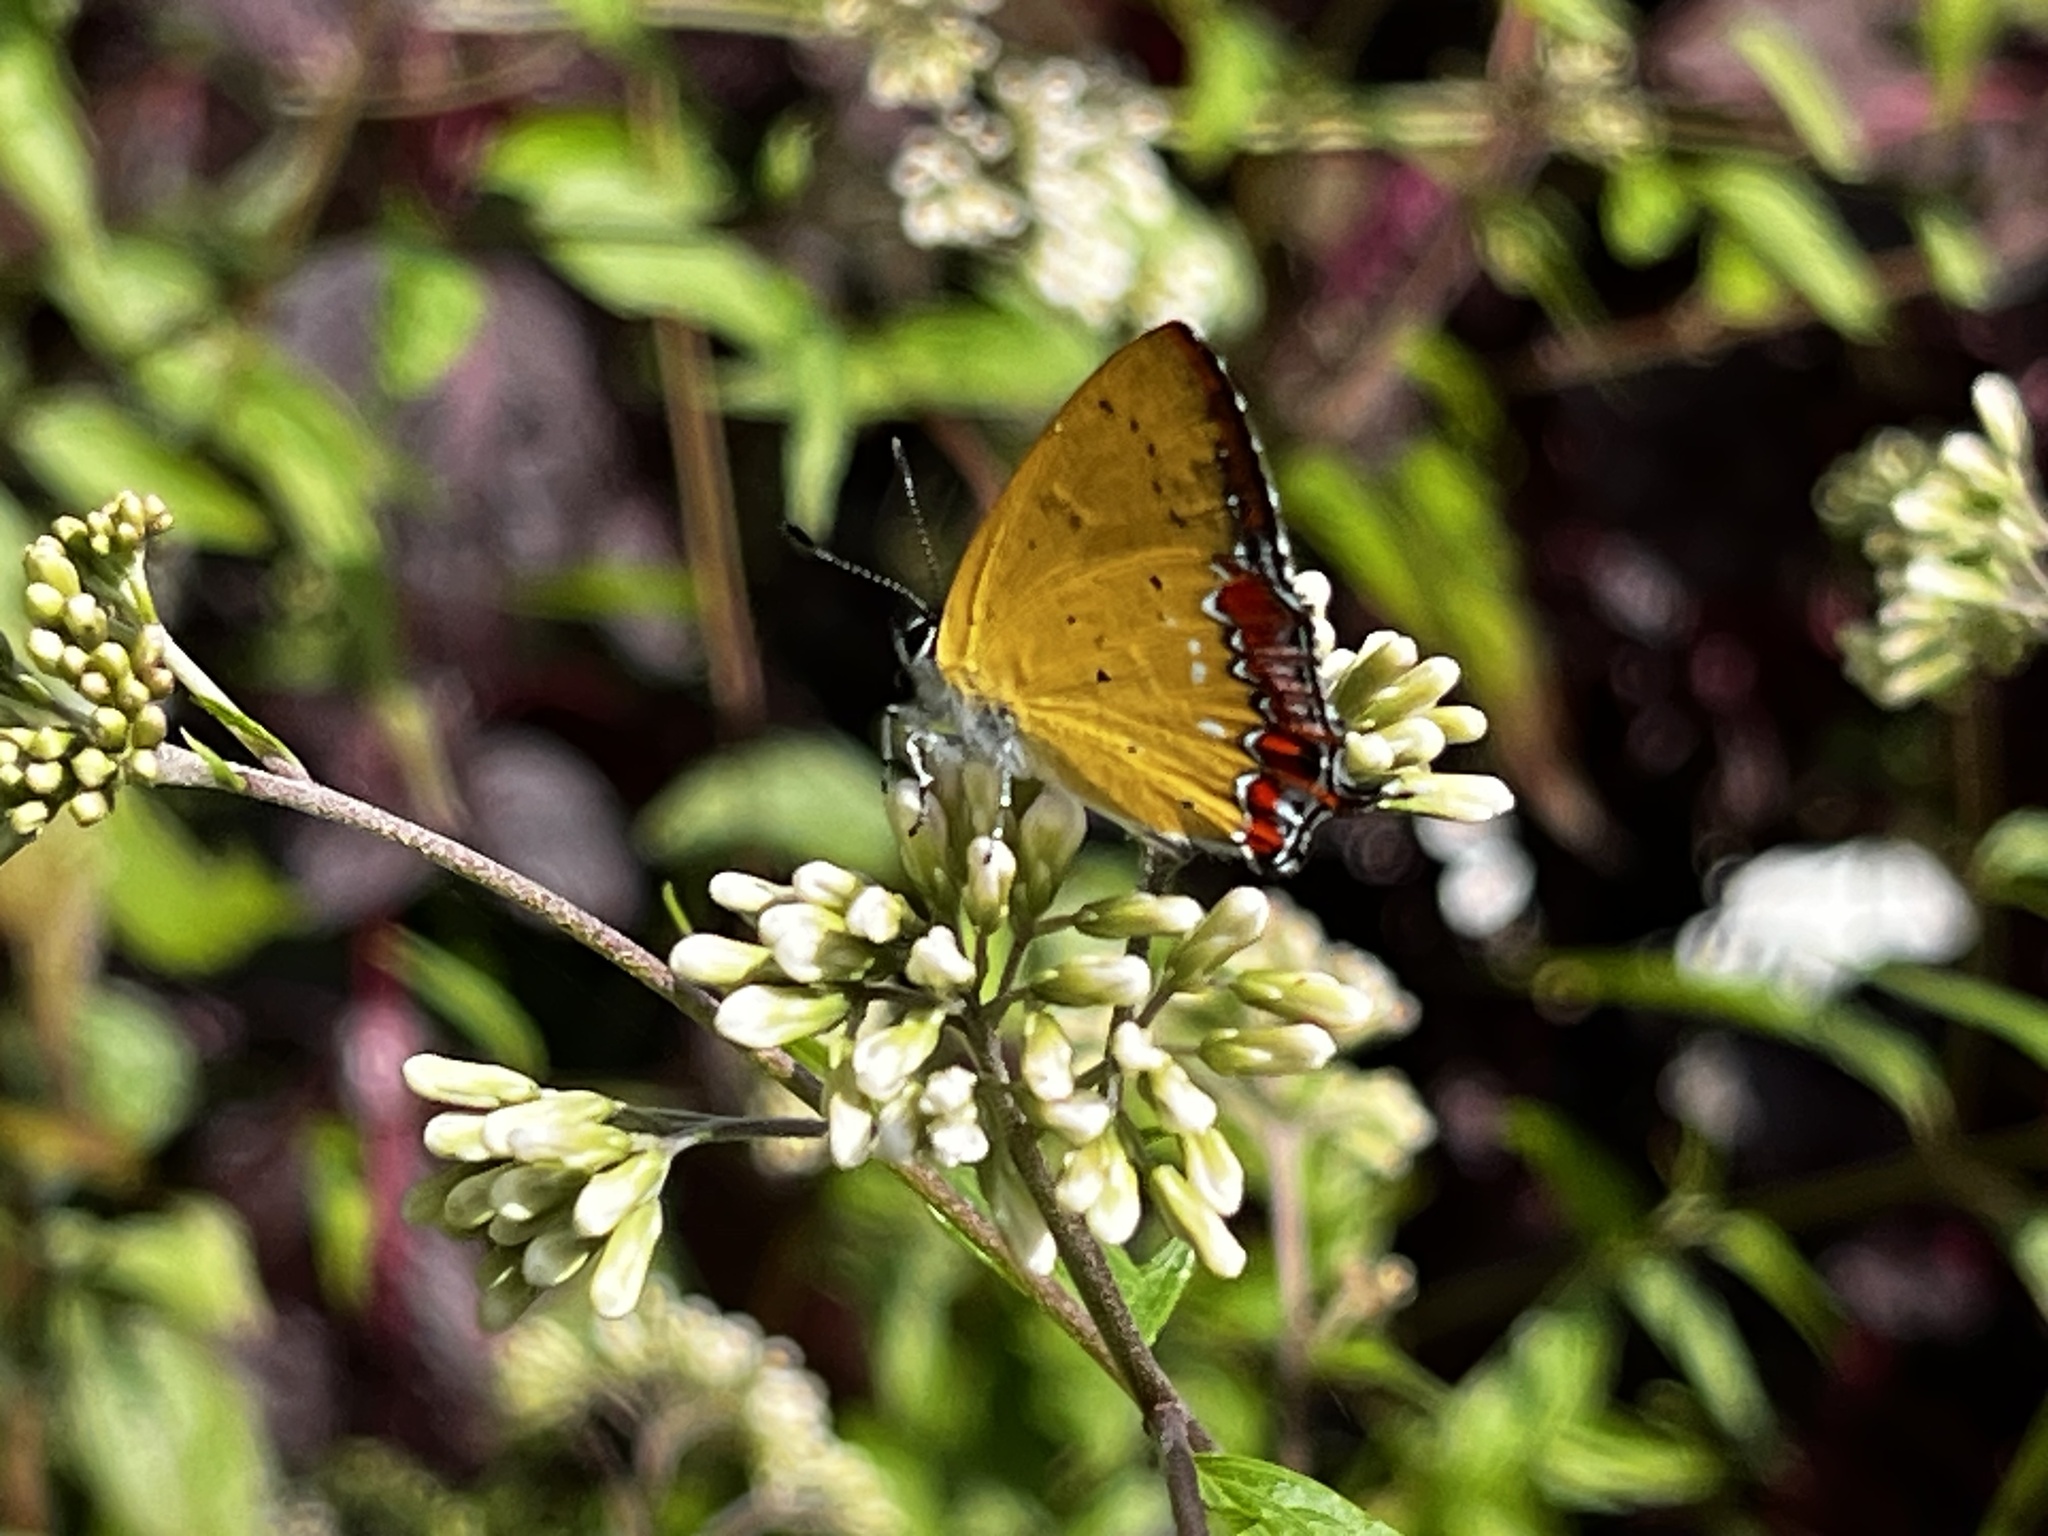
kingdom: Animalia
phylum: Arthropoda
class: Insecta
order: Lepidoptera
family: Lycaenidae
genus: Heliophorus
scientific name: Heliophorus ila
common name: Restricted purple sapphire
